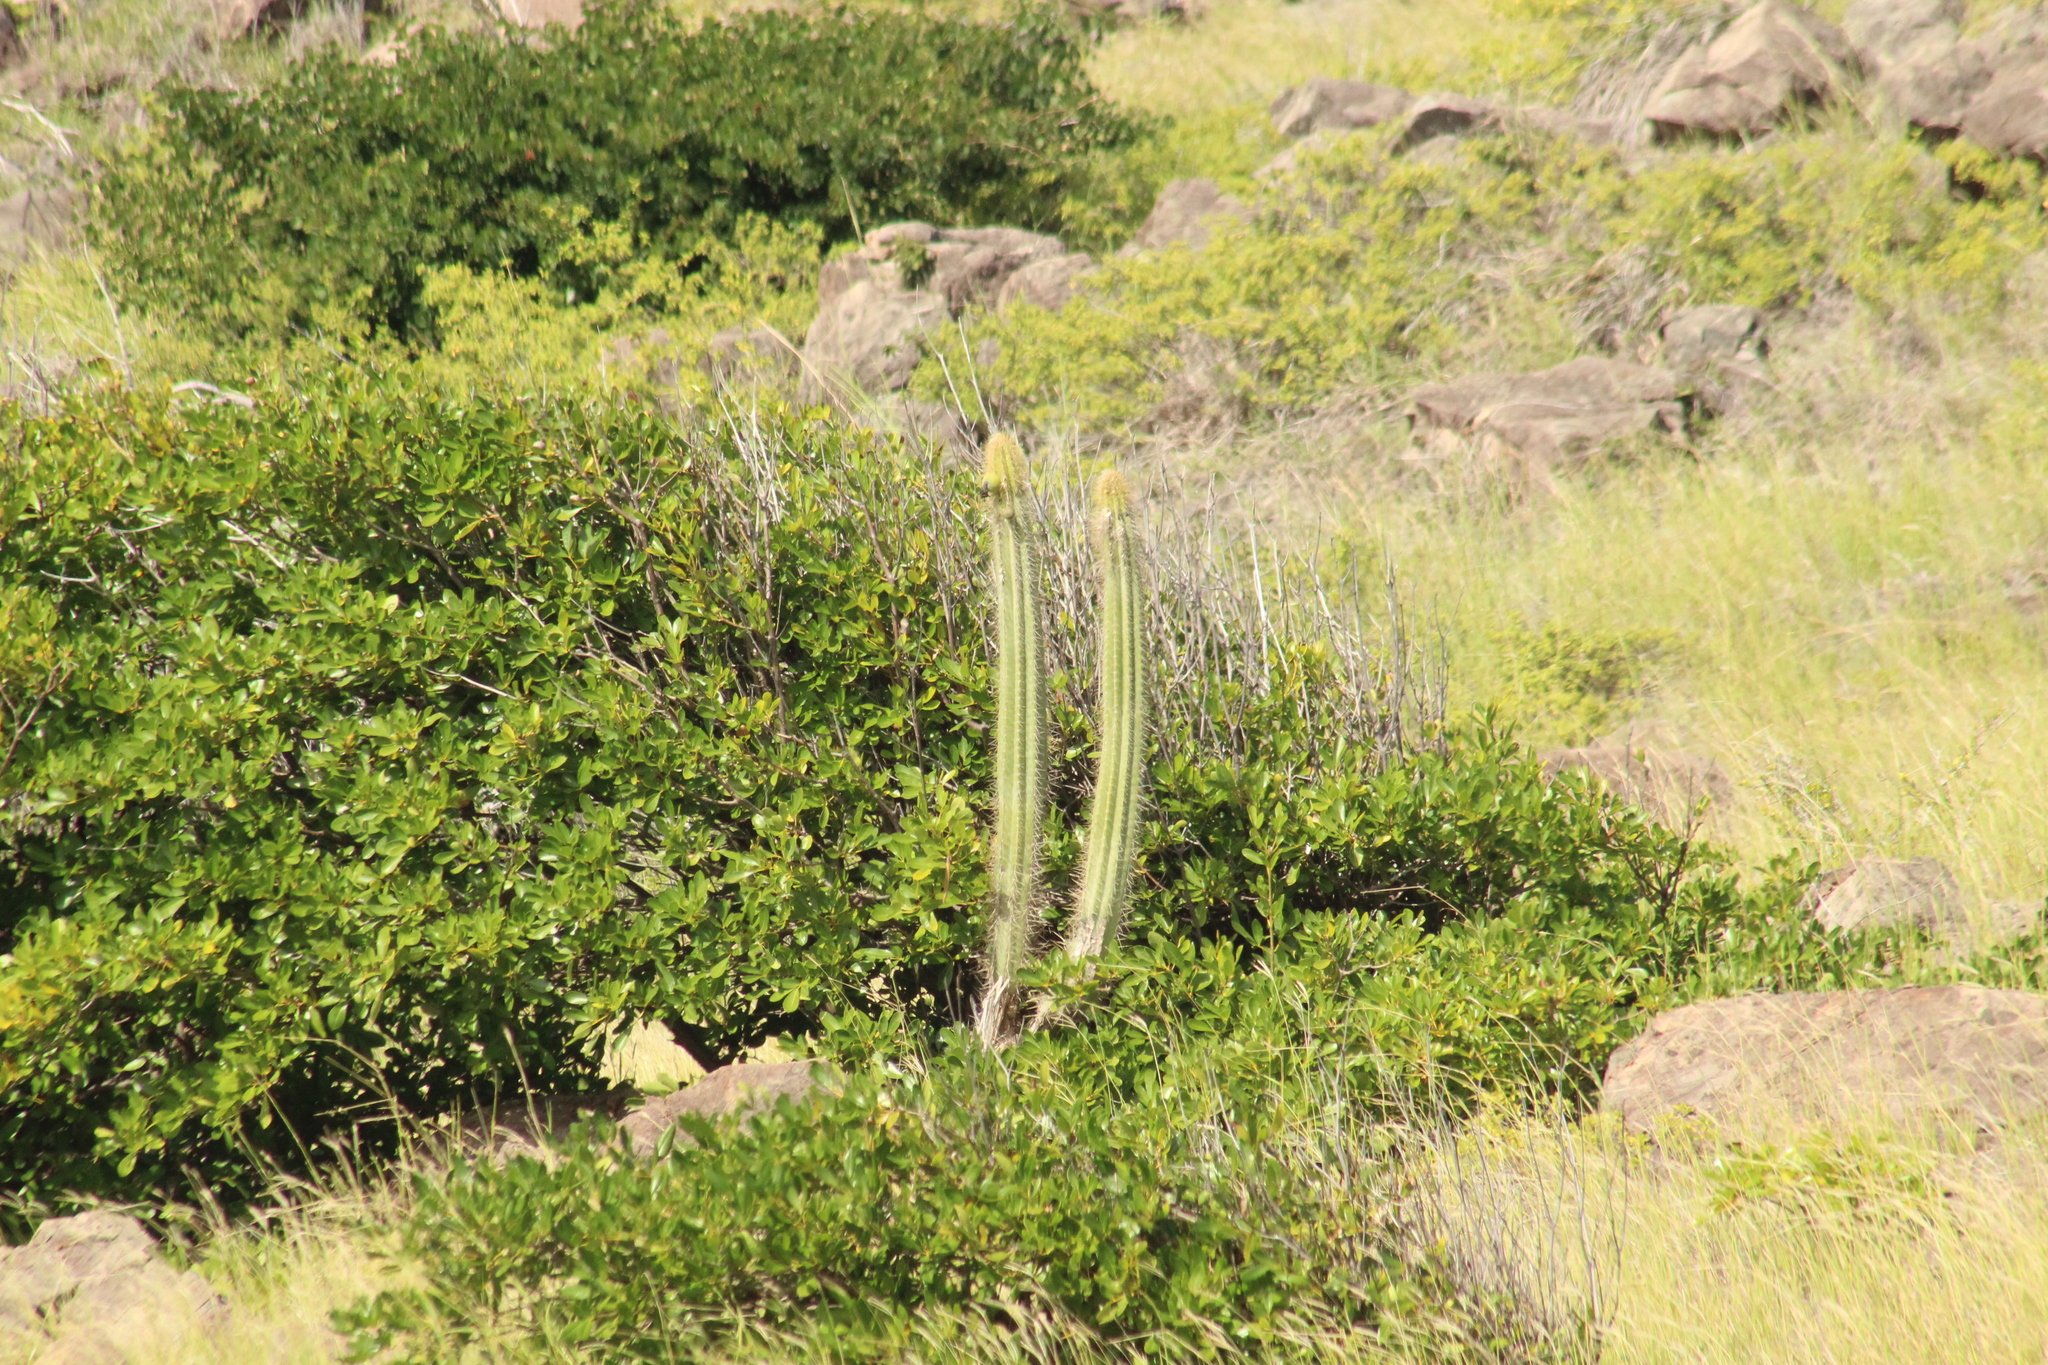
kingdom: Plantae
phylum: Tracheophyta
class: Magnoliopsida
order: Caryophyllales
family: Cactaceae
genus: Pilosocereus
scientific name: Pilosocereus curtisii
